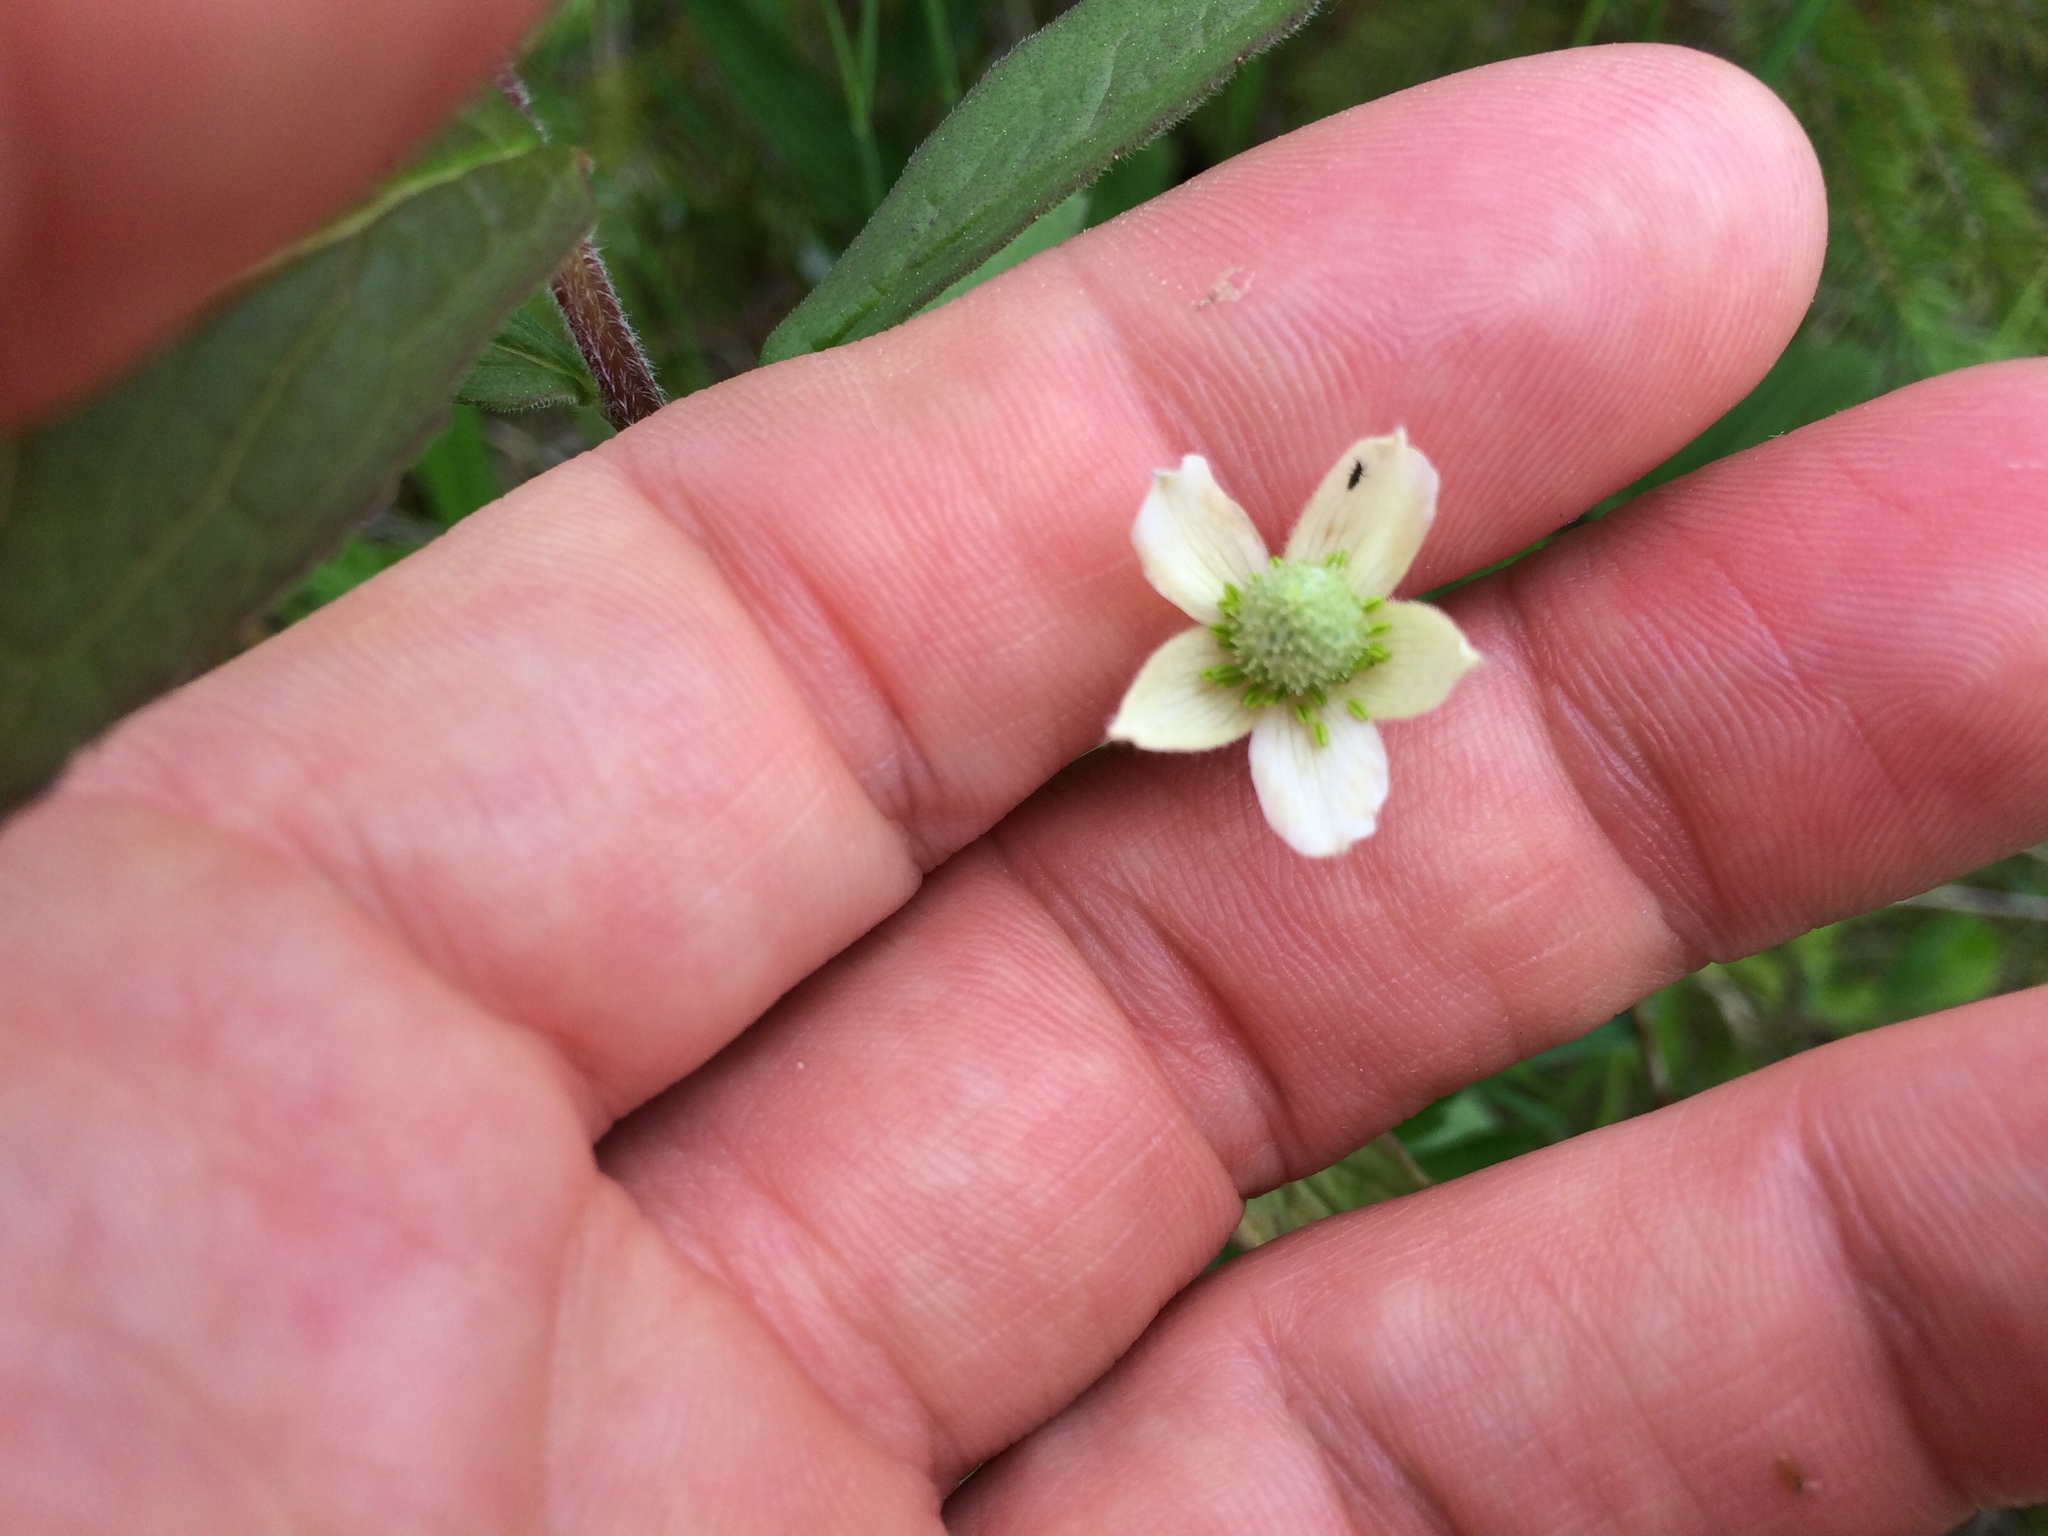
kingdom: Plantae
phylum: Tracheophyta
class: Magnoliopsida
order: Ranunculales
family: Ranunculaceae
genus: Anemone
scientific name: Anemone virginiana
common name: Tall anemone
